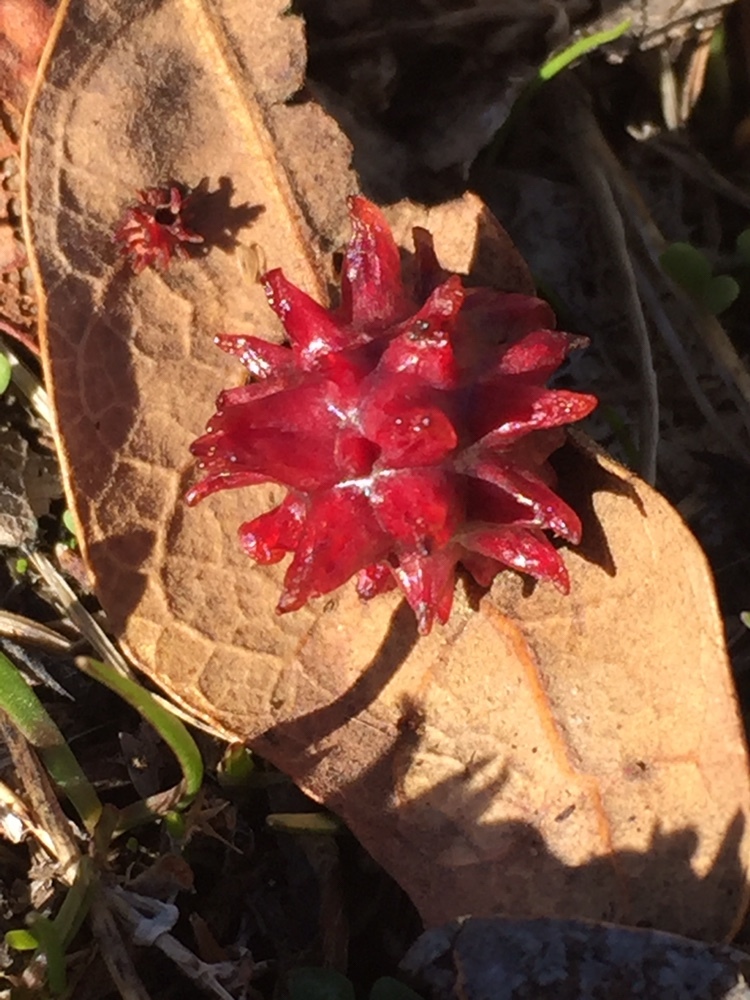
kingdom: Animalia
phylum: Arthropoda
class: Insecta
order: Hymenoptera
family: Cynipidae
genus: Cynips
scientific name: Cynips
